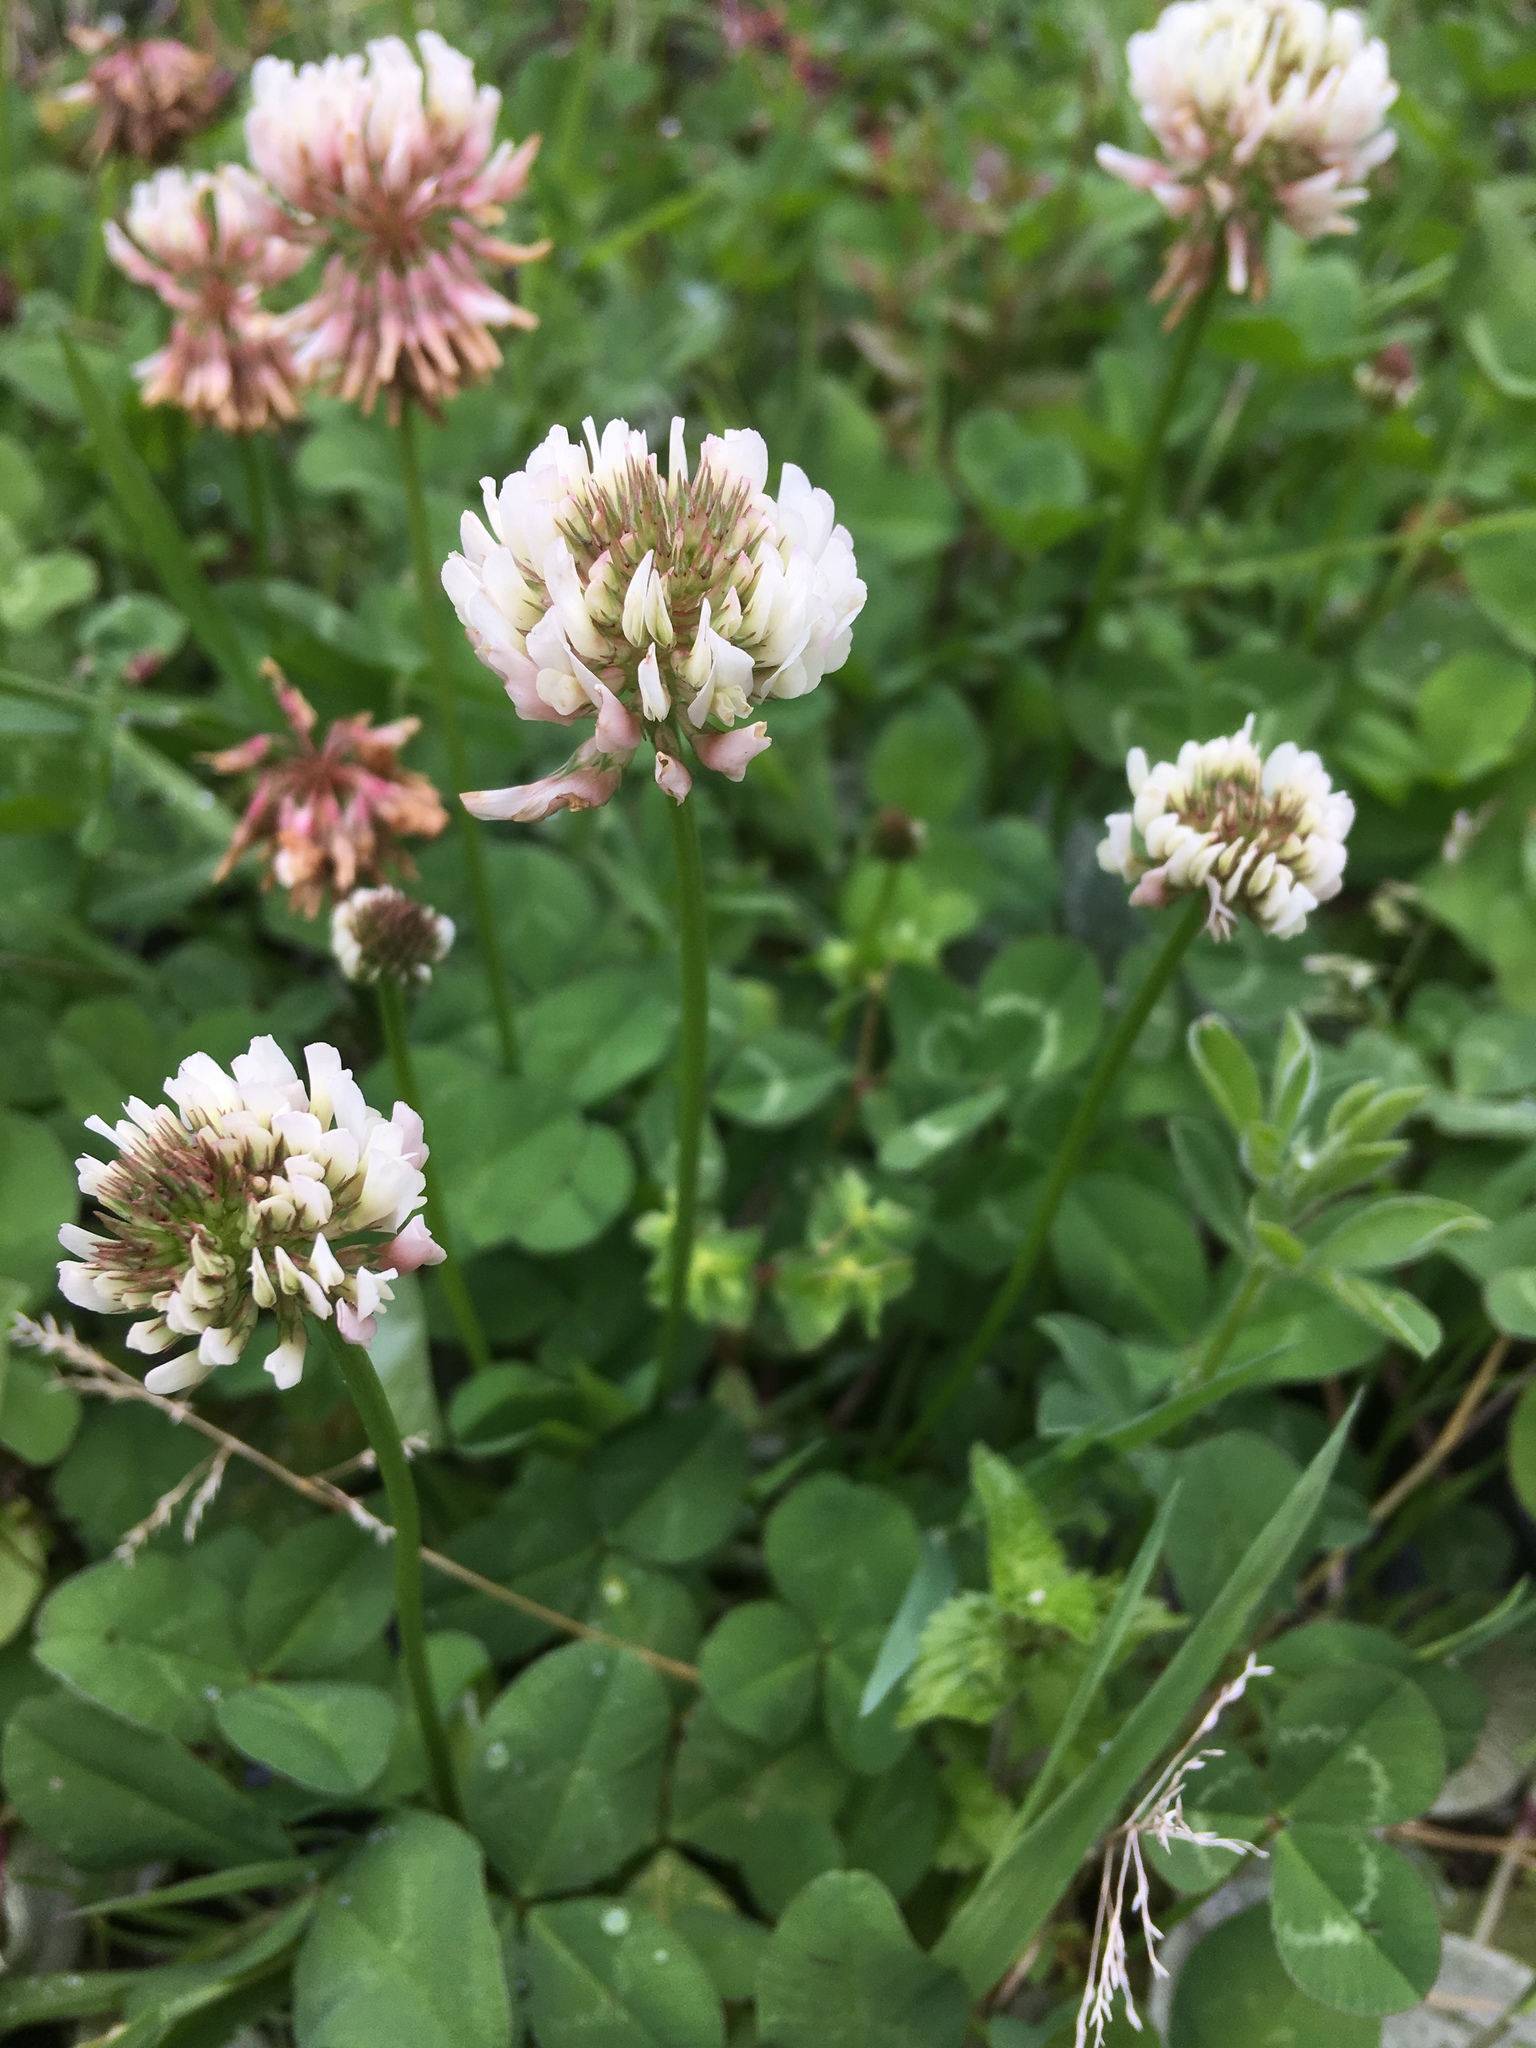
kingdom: Plantae
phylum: Tracheophyta
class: Magnoliopsida
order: Fabales
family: Fabaceae
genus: Trifolium
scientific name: Trifolium repens
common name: White clover
